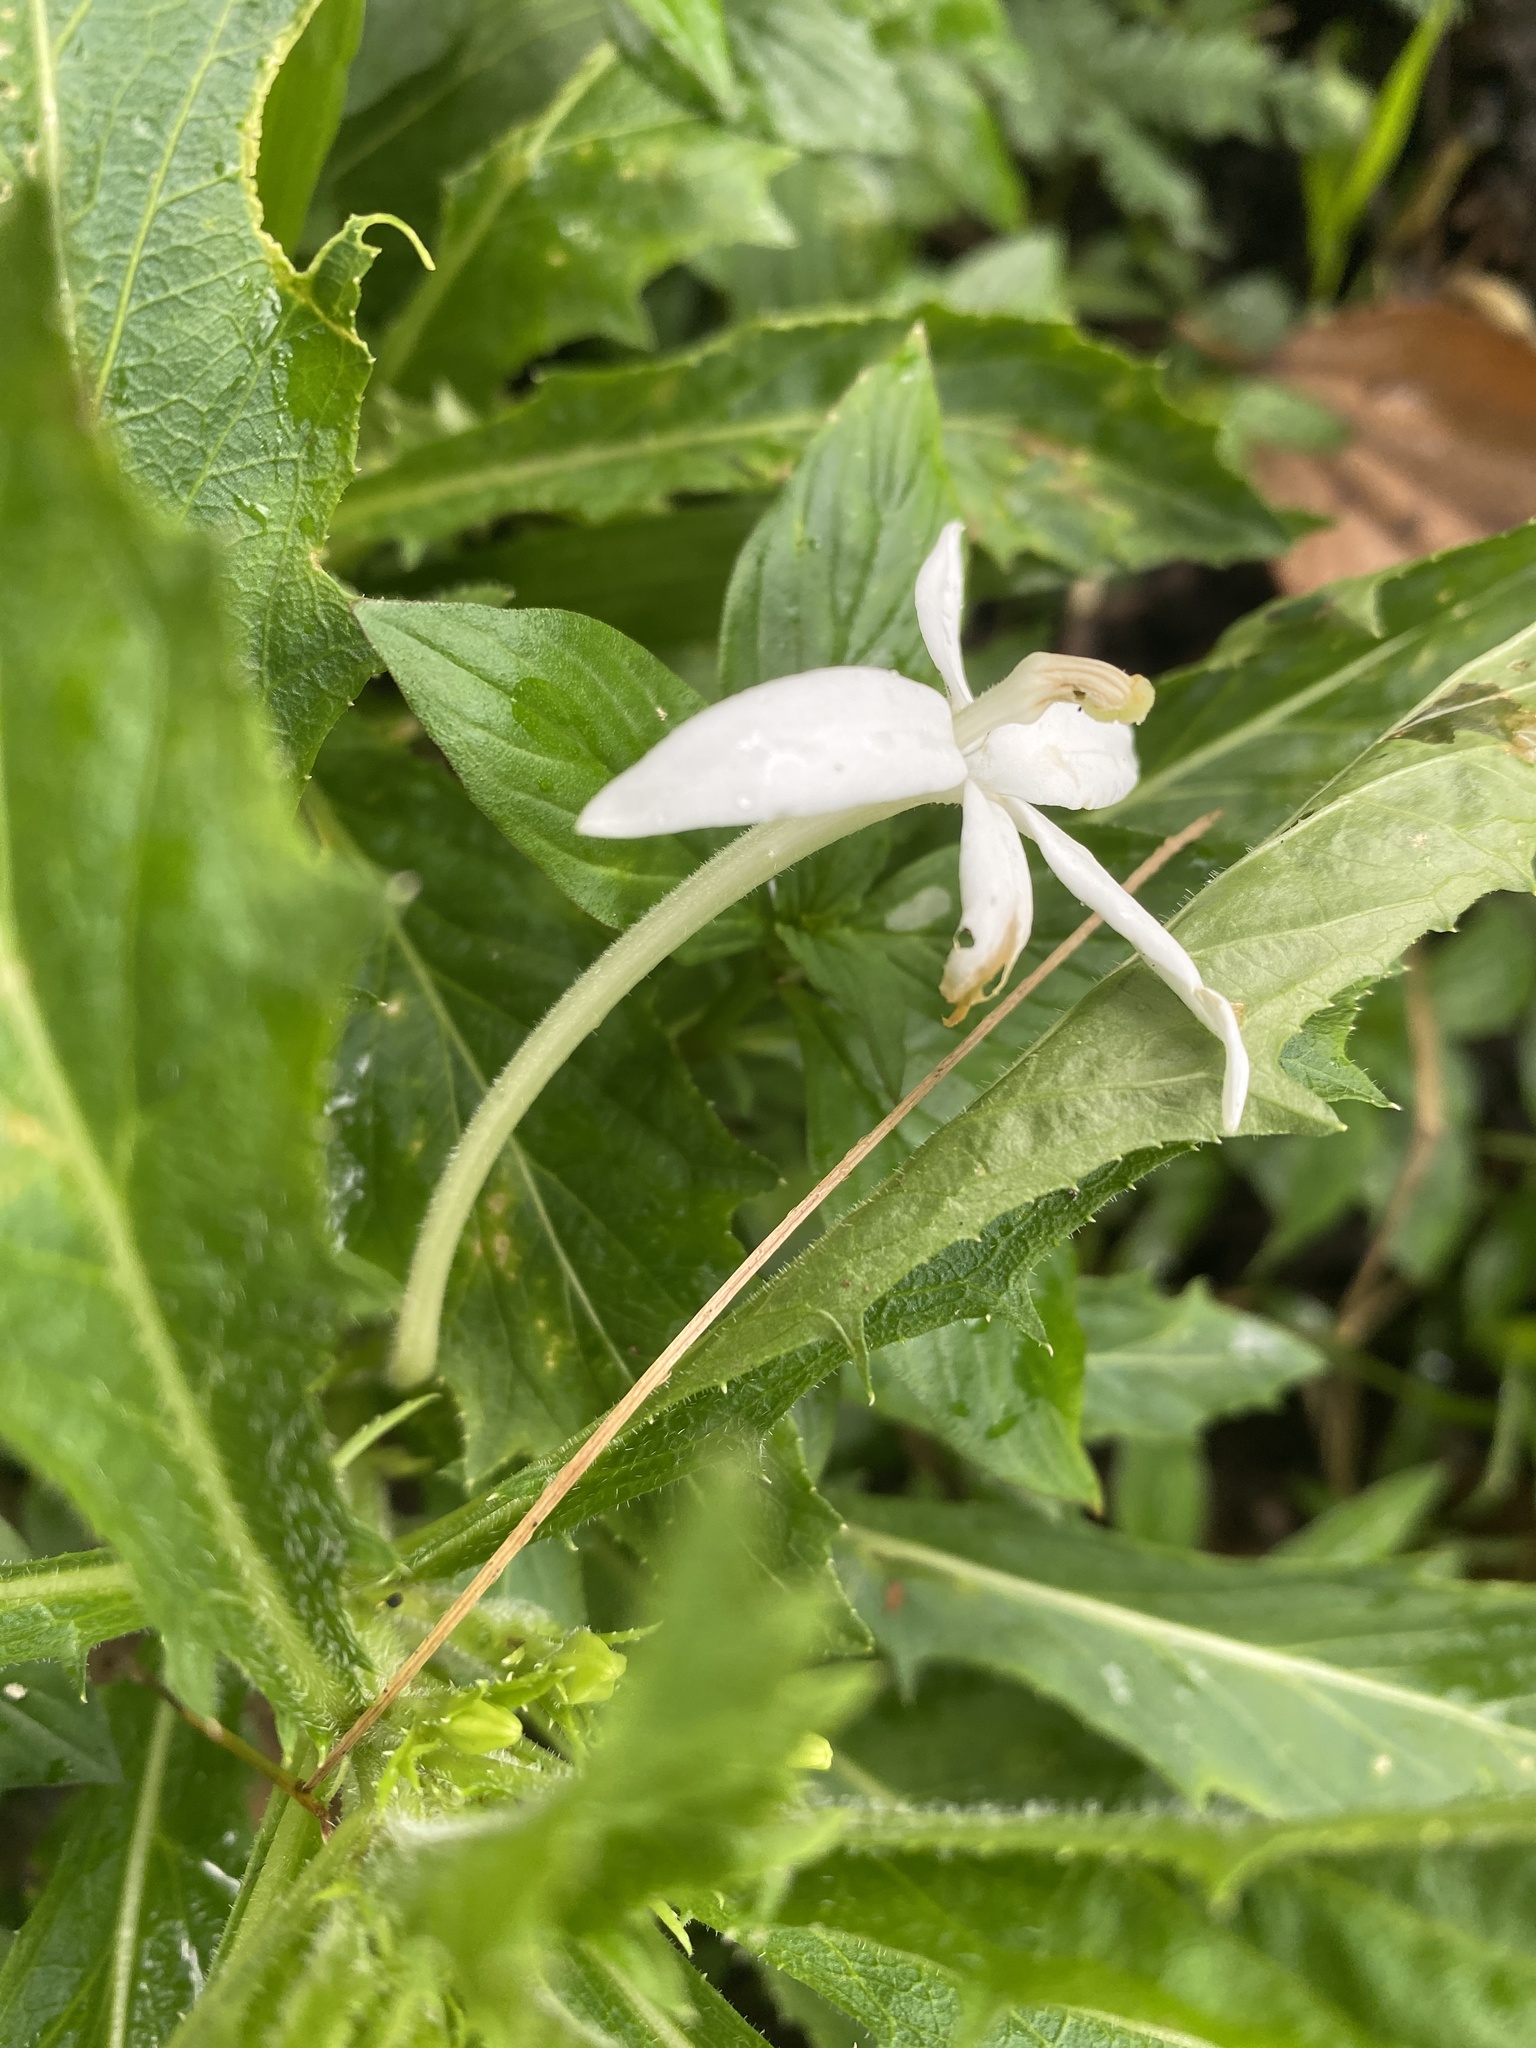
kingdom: Plantae
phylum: Tracheophyta
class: Magnoliopsida
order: Asterales
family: Campanulaceae
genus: Hippobroma
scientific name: Hippobroma longiflora
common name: Madamfate
